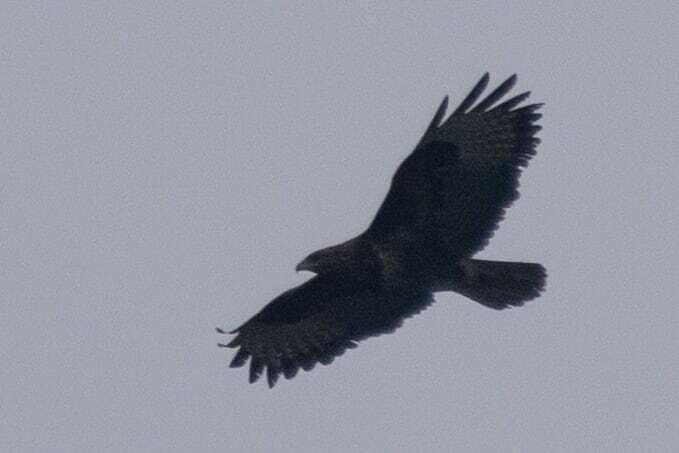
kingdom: Animalia
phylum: Chordata
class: Aves
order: Accipitriformes
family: Accipitridae
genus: Buteo
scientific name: Buteo buteo
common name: Common buzzard
